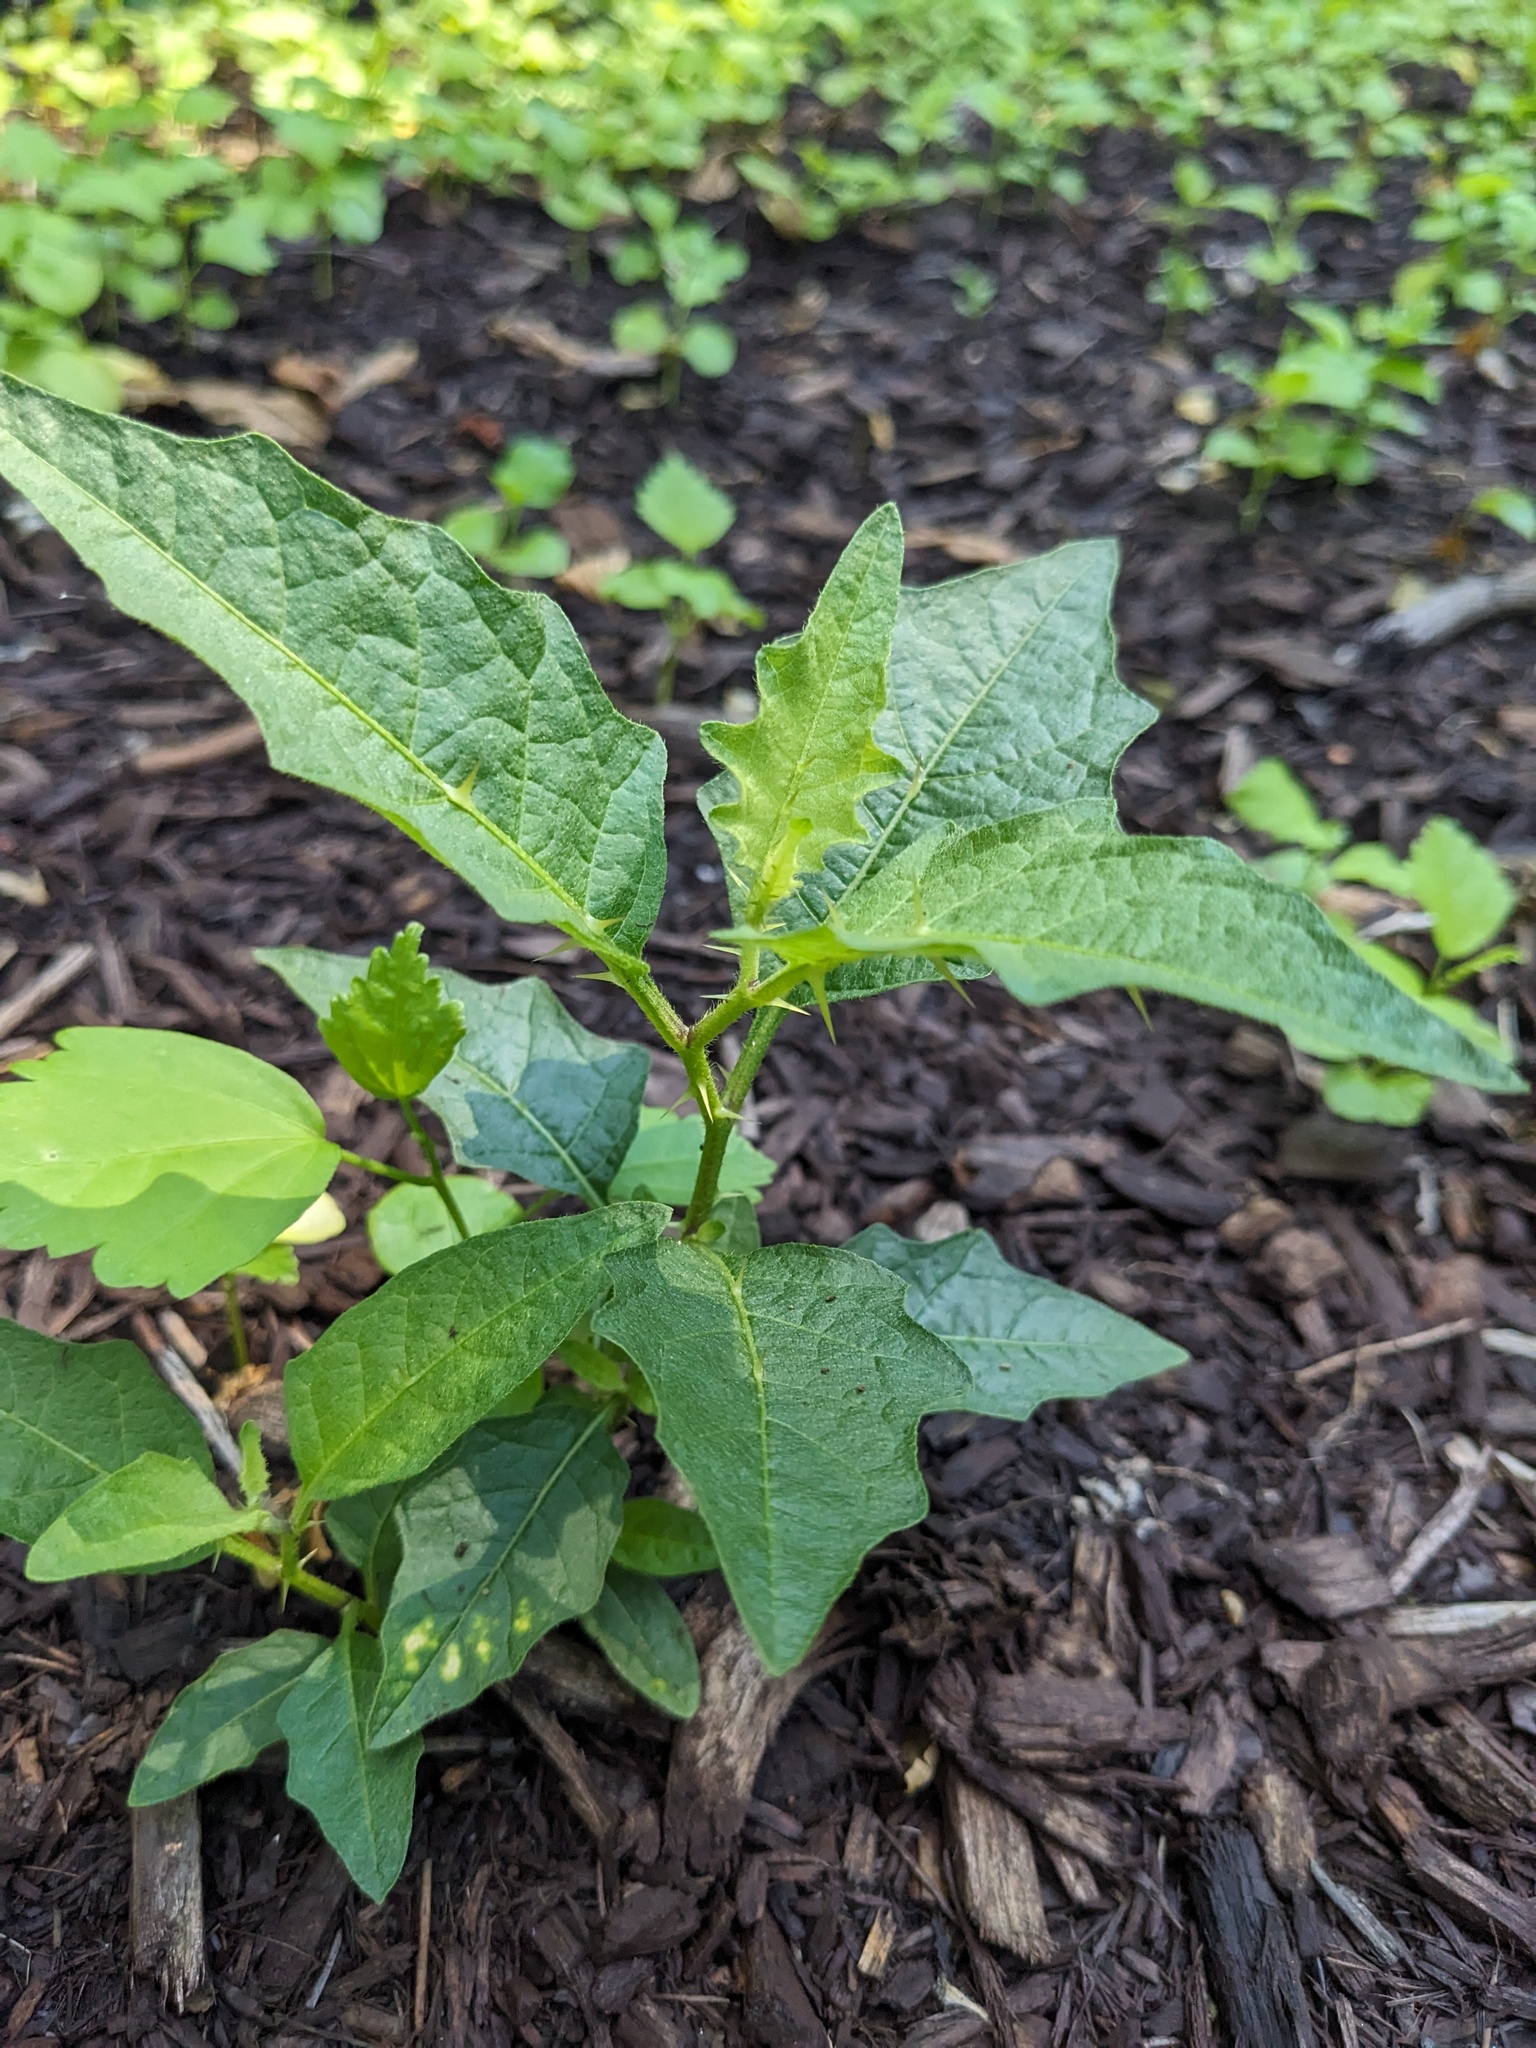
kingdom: Plantae
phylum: Tracheophyta
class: Magnoliopsida
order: Solanales
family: Solanaceae
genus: Solanum
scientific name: Solanum carolinense
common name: Horse-nettle
